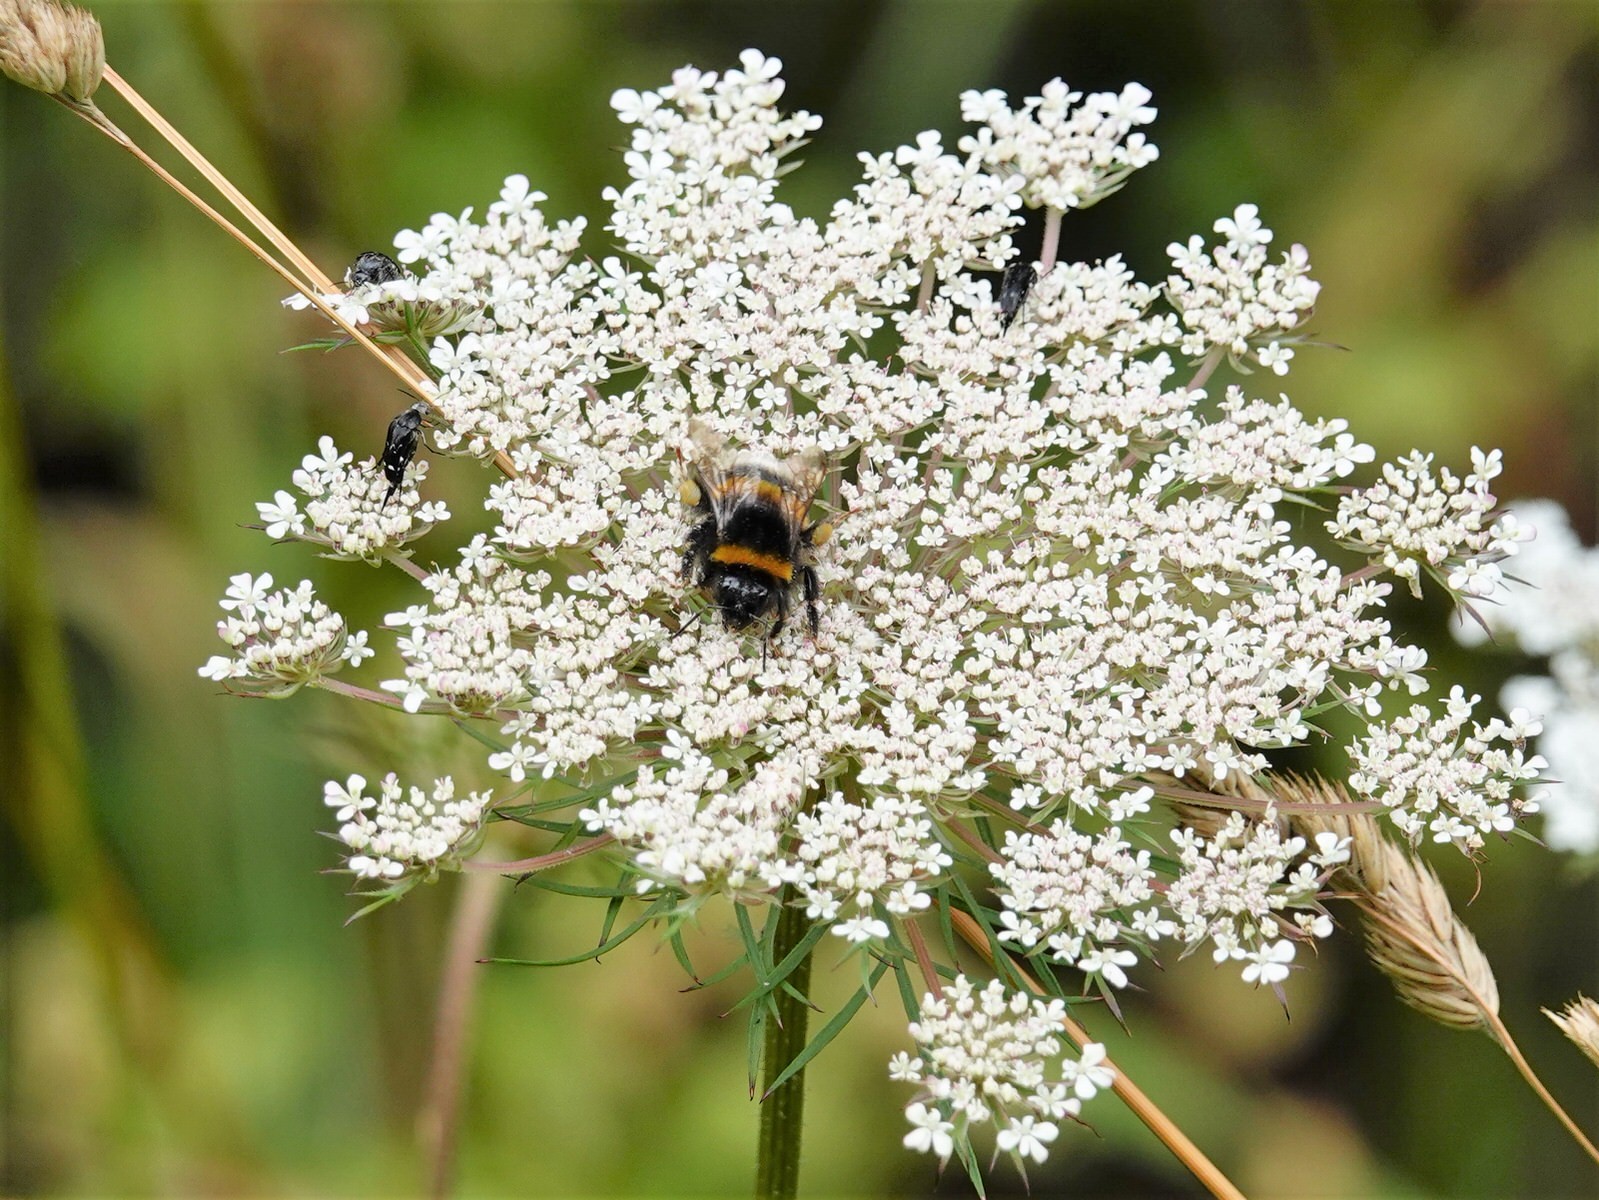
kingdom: Animalia
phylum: Arthropoda
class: Insecta
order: Hymenoptera
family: Apidae
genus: Bombus
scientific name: Bombus terrestris
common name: Buff-tailed bumblebee
